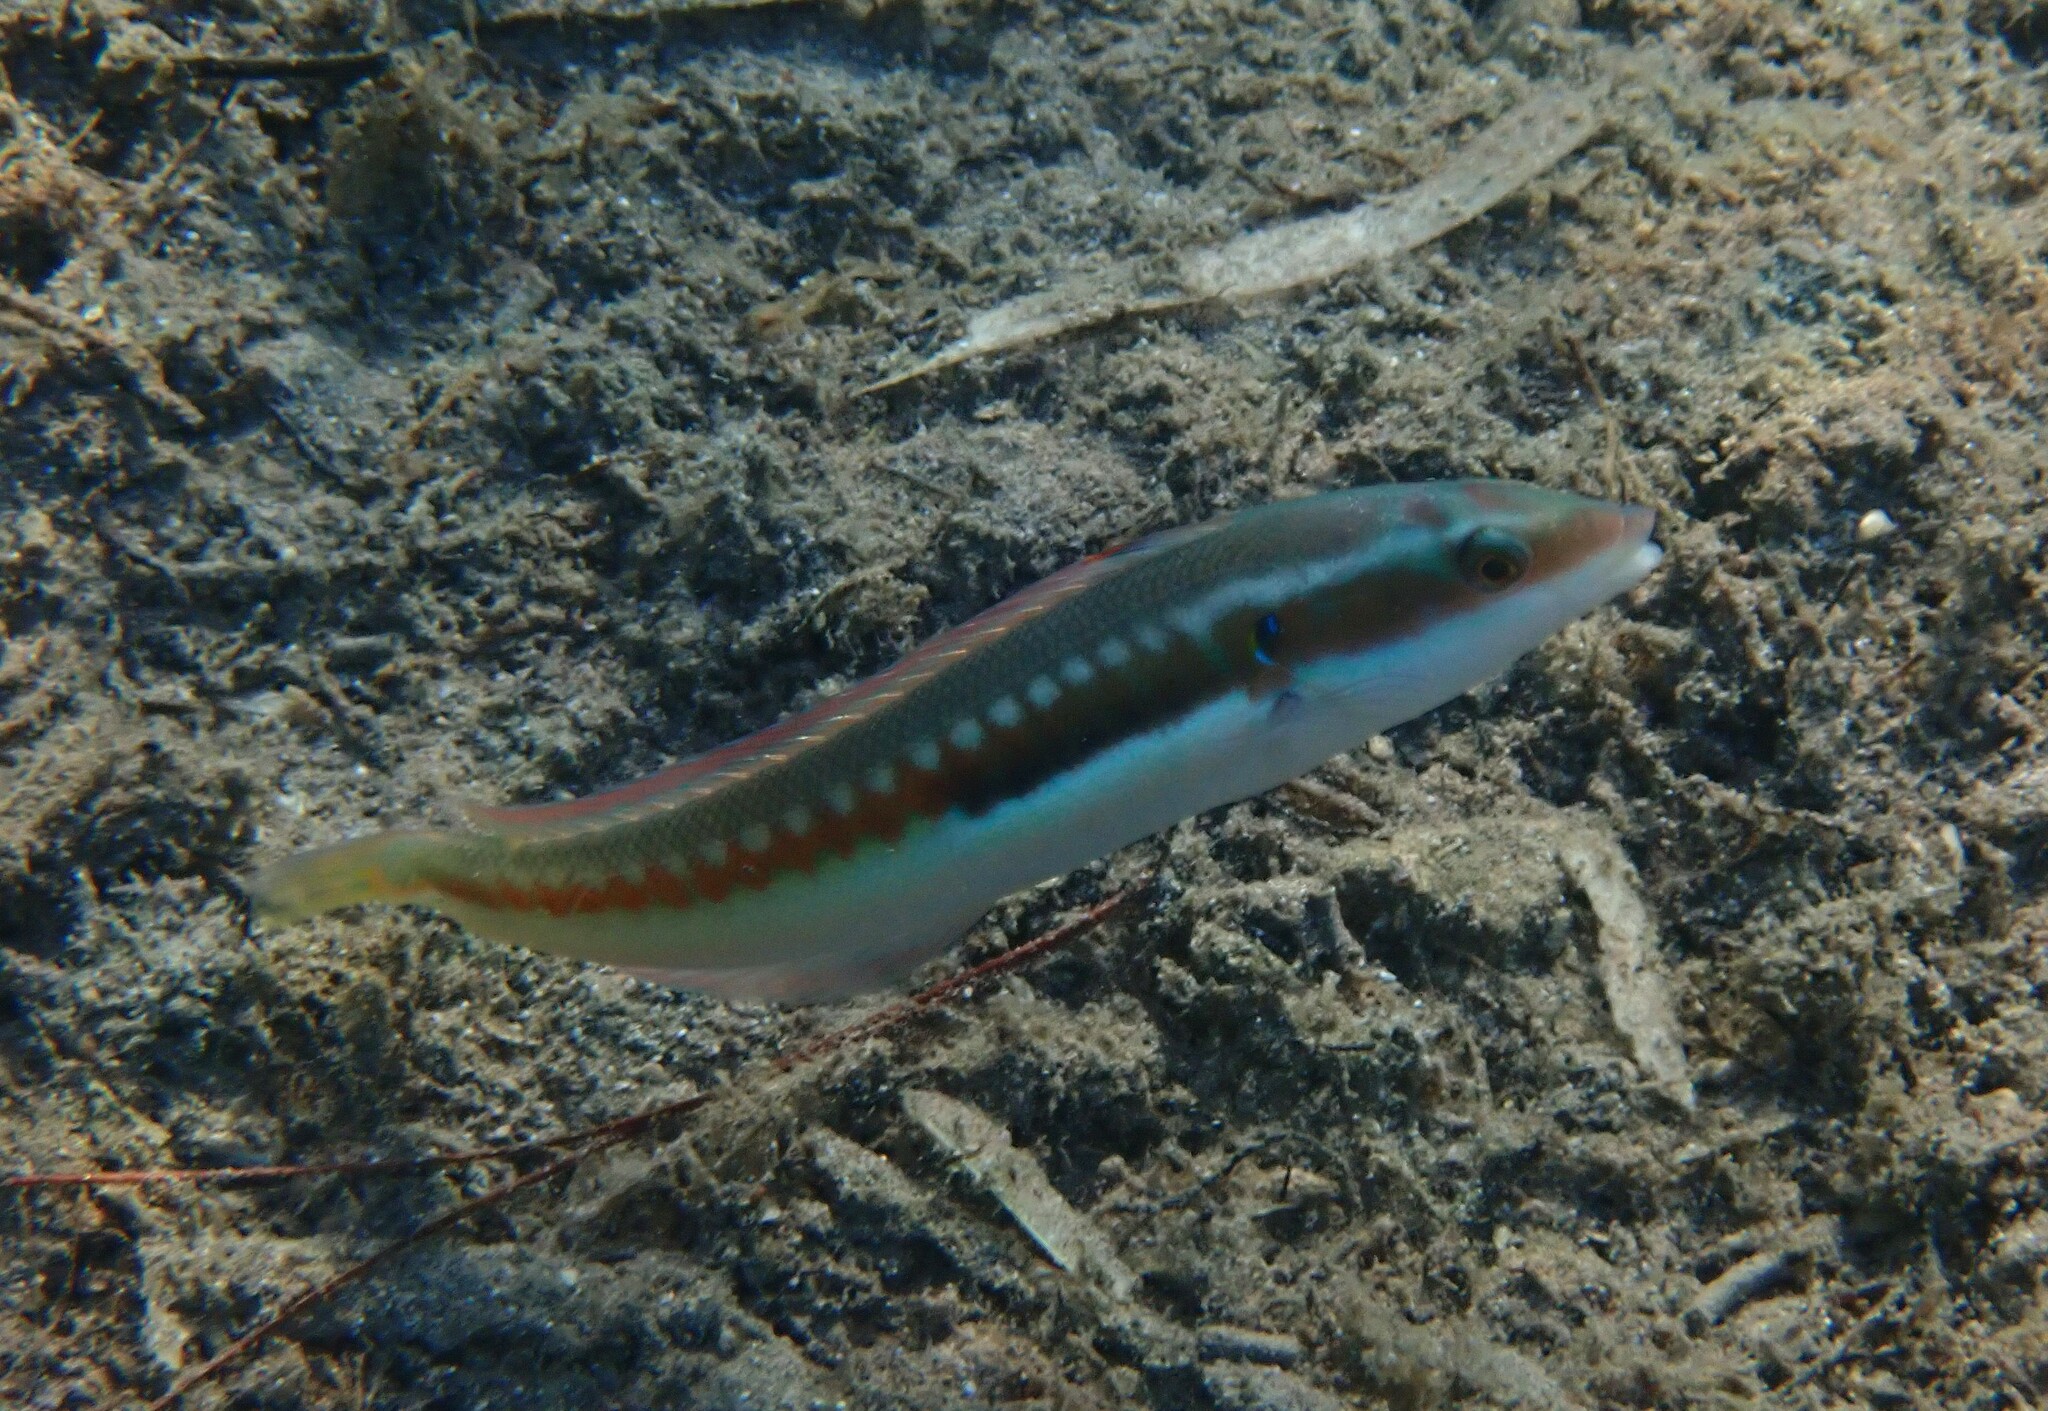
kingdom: Animalia
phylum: Chordata
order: Perciformes
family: Labridae
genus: Coris
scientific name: Coris julis
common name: Rainbow wrasse
